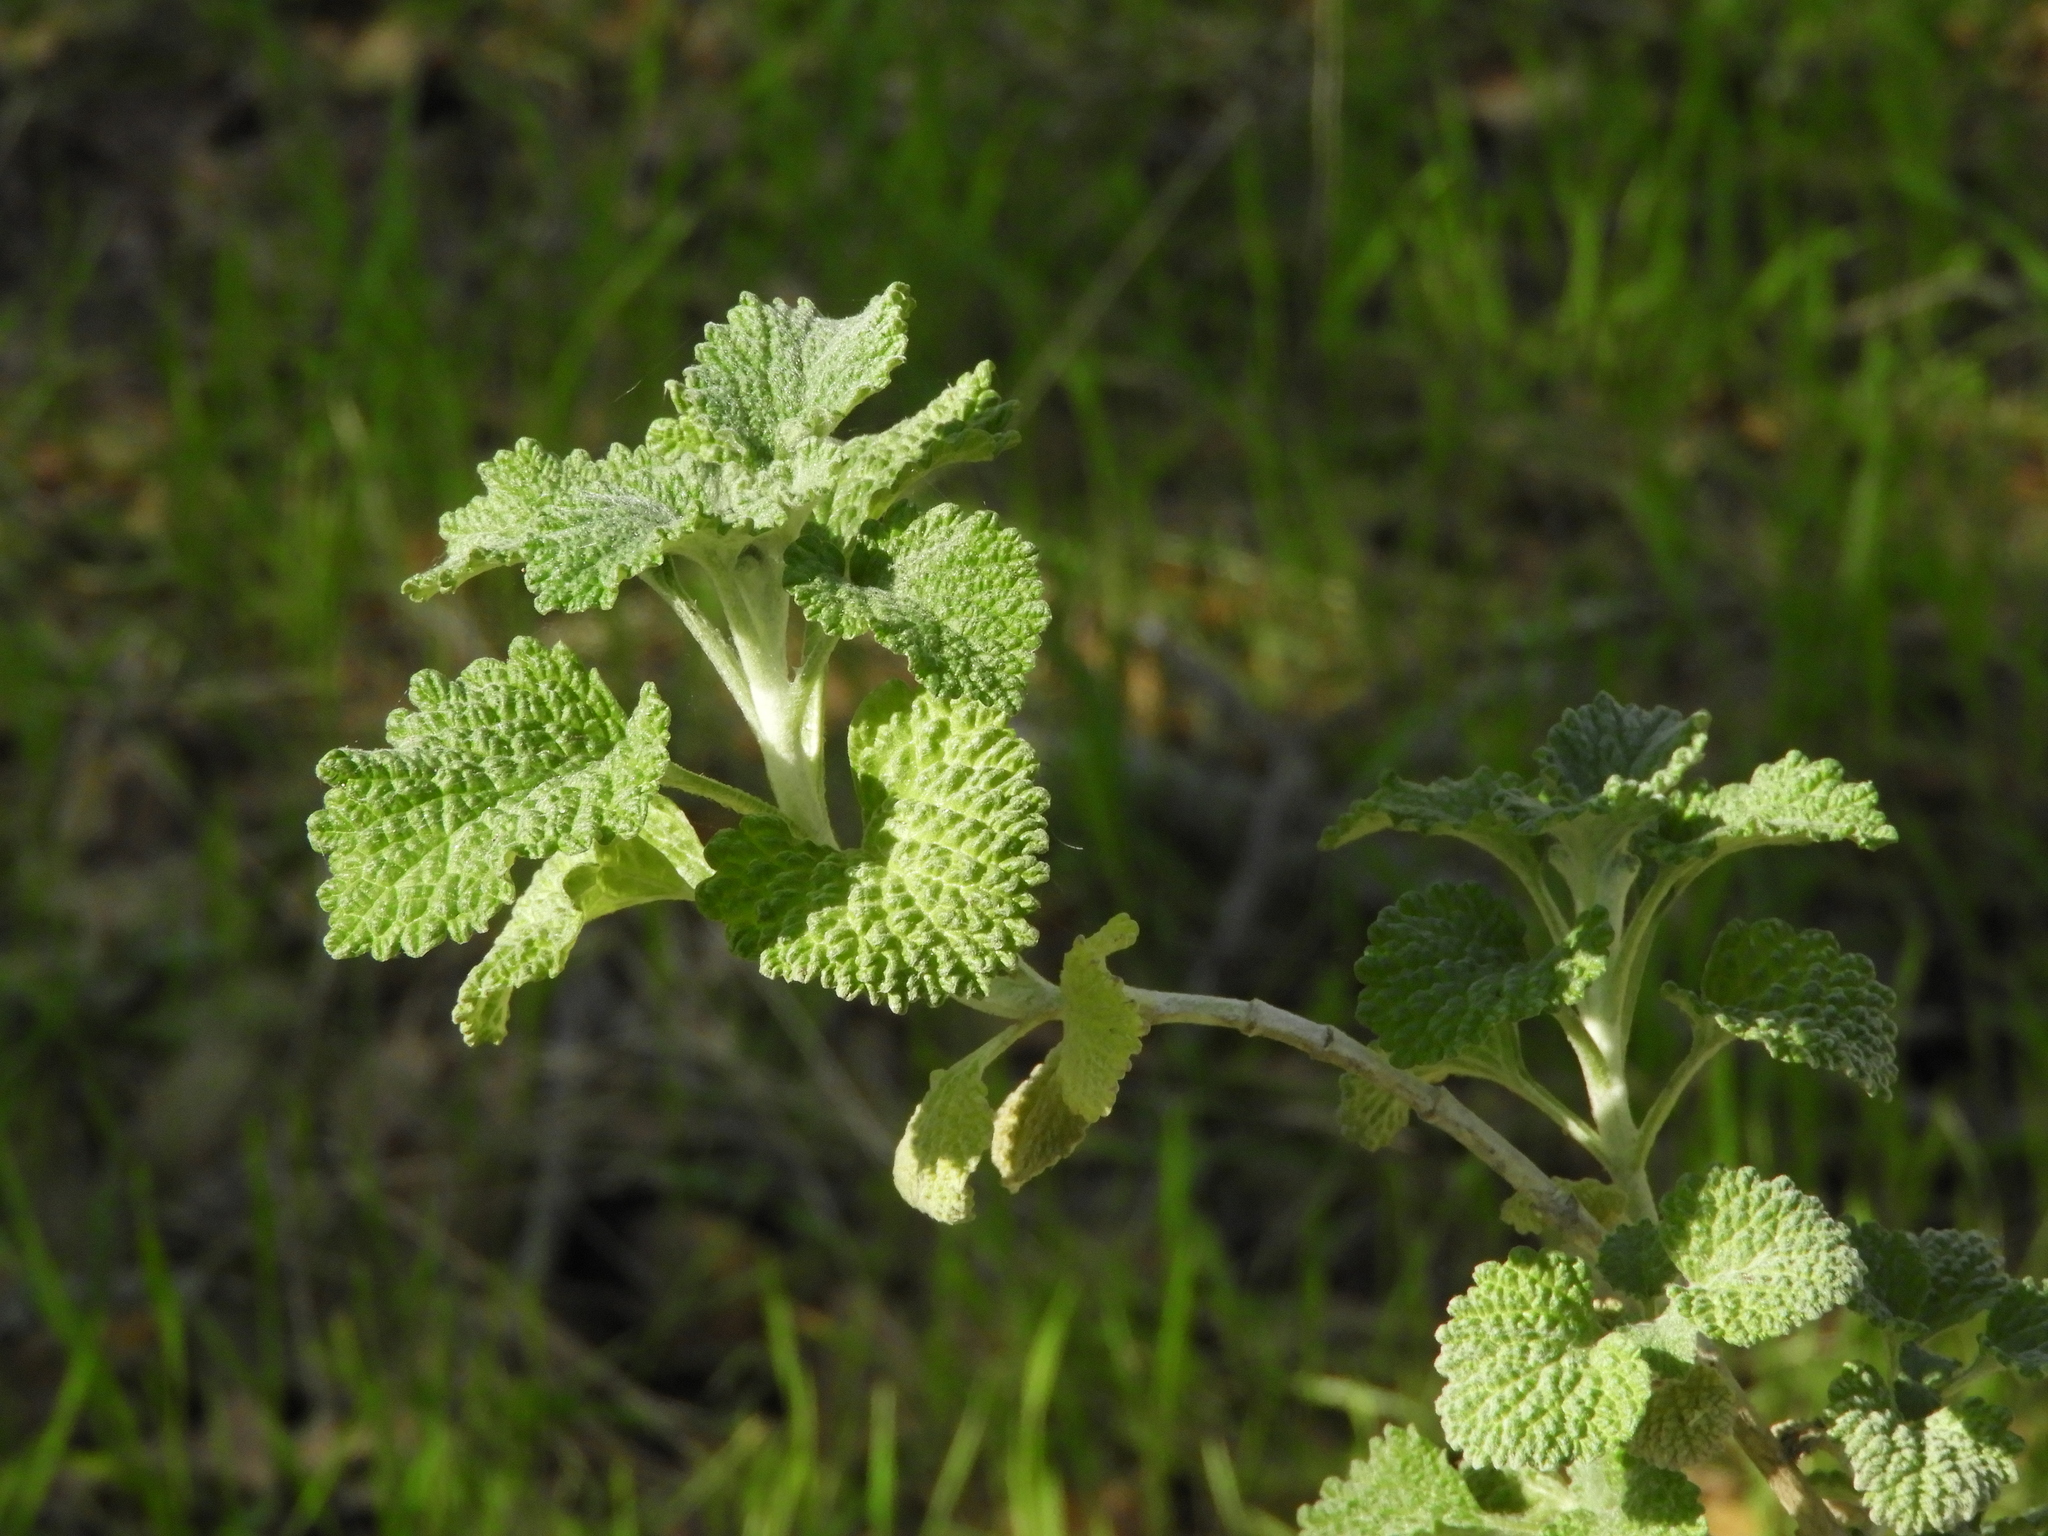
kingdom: Plantae
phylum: Tracheophyta
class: Magnoliopsida
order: Lamiales
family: Lamiaceae
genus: Marrubium
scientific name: Marrubium vulgare
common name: Horehound
